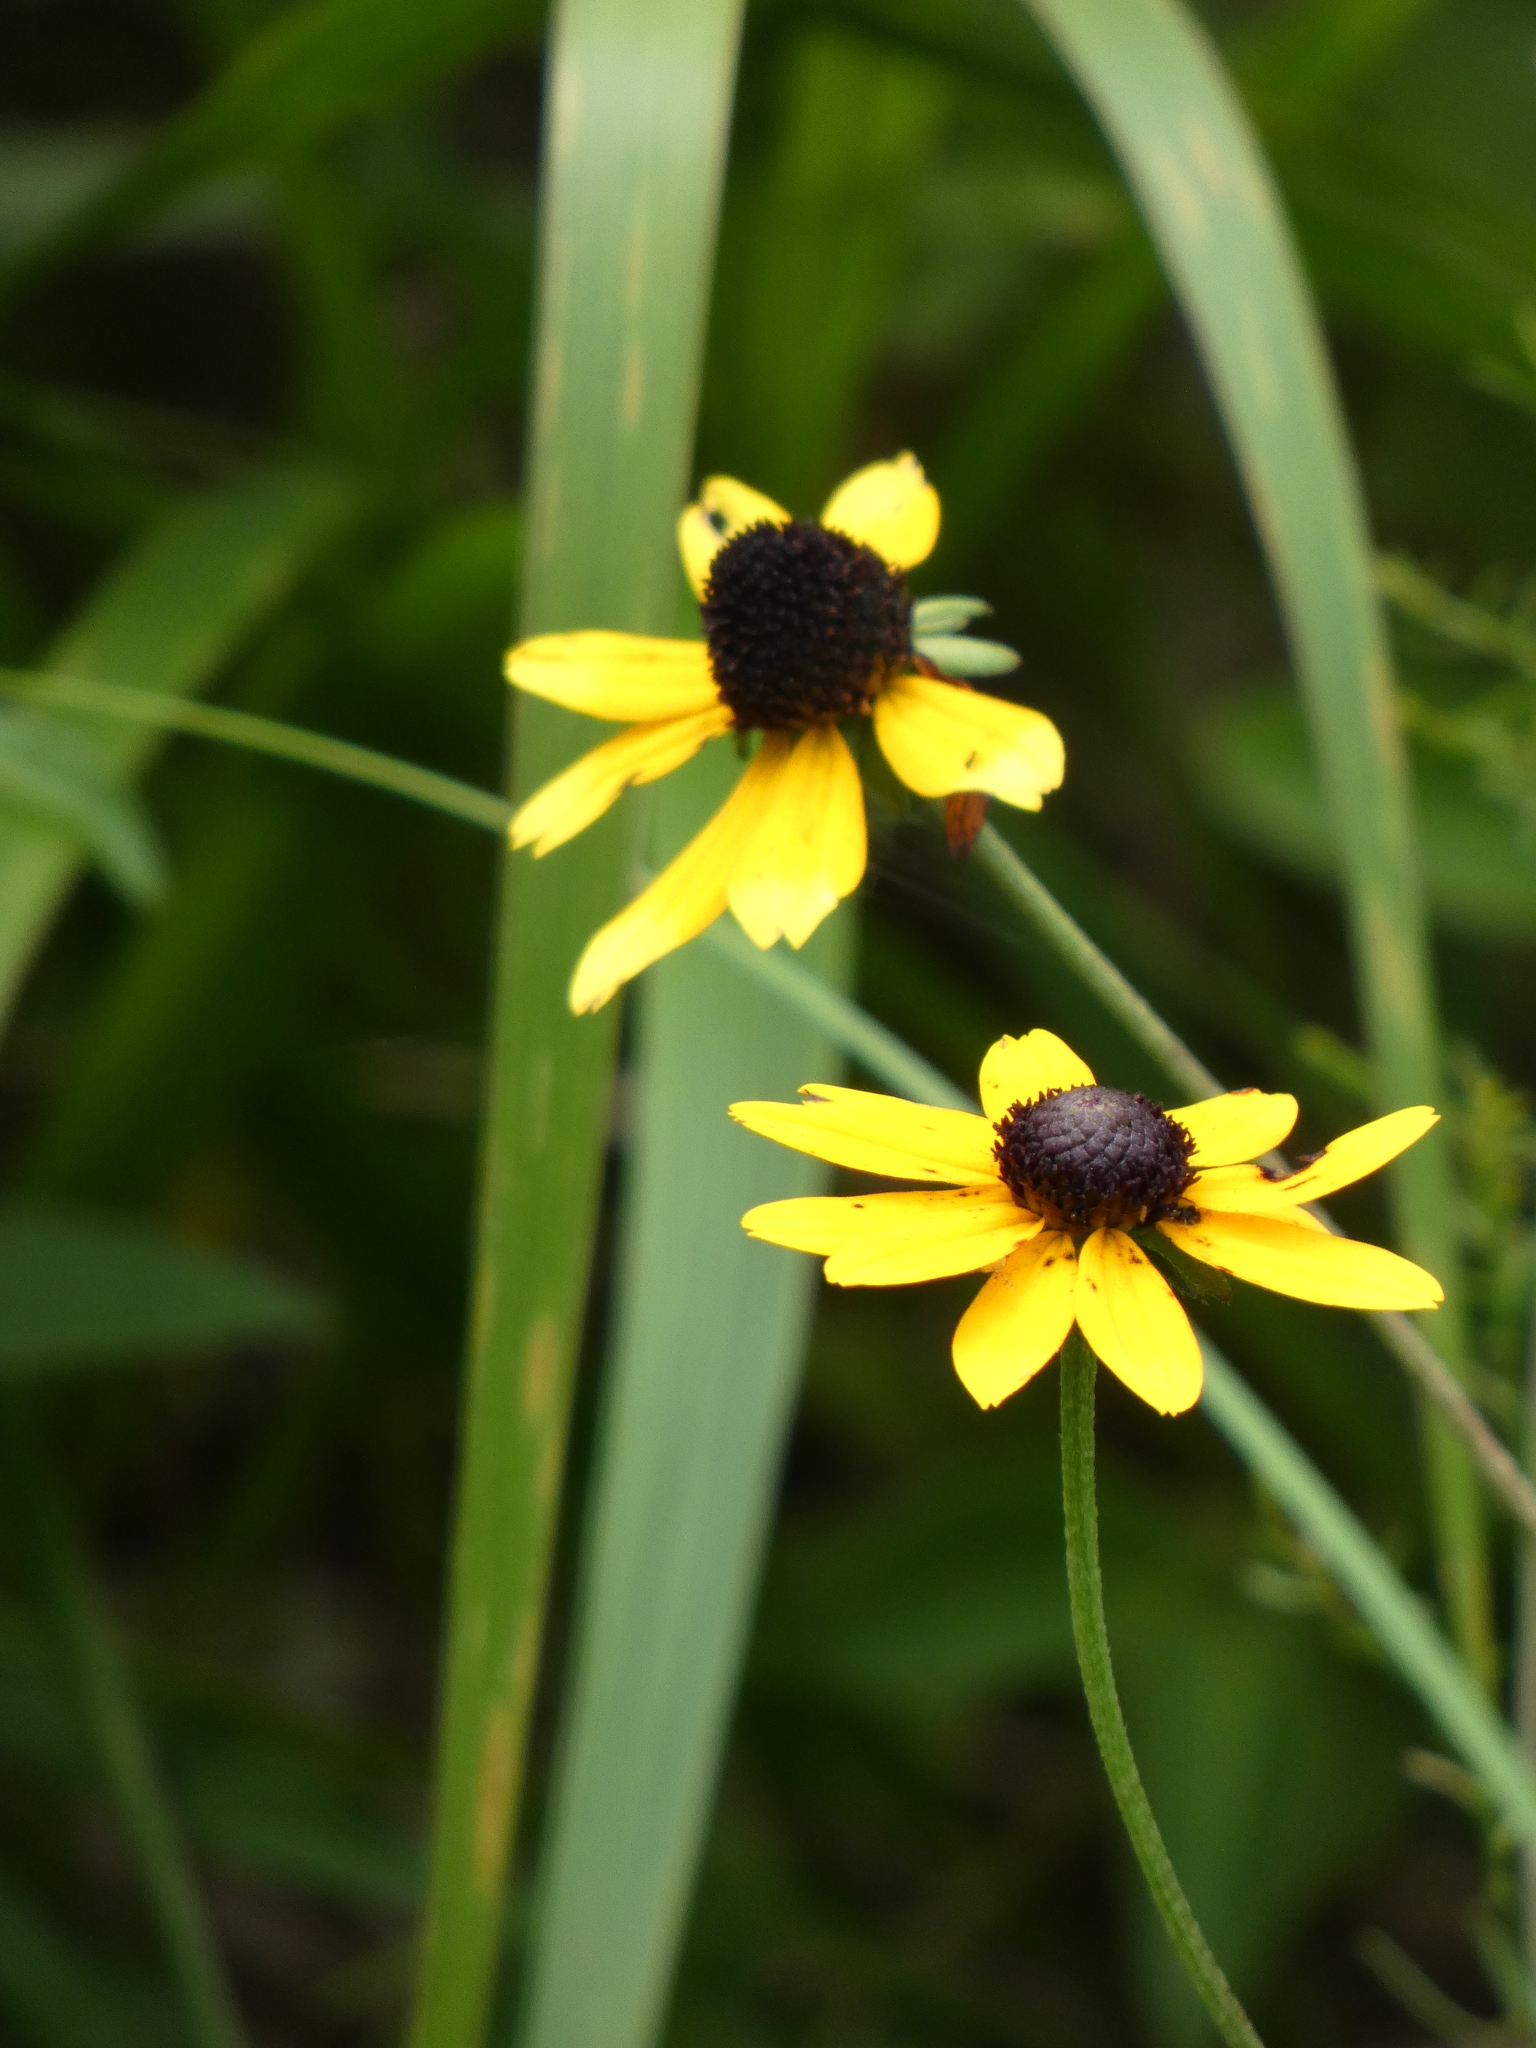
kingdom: Plantae
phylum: Tracheophyta
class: Magnoliopsida
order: Asterales
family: Asteraceae
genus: Rudbeckia
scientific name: Rudbeckia hirta
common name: Black-eyed-susan
